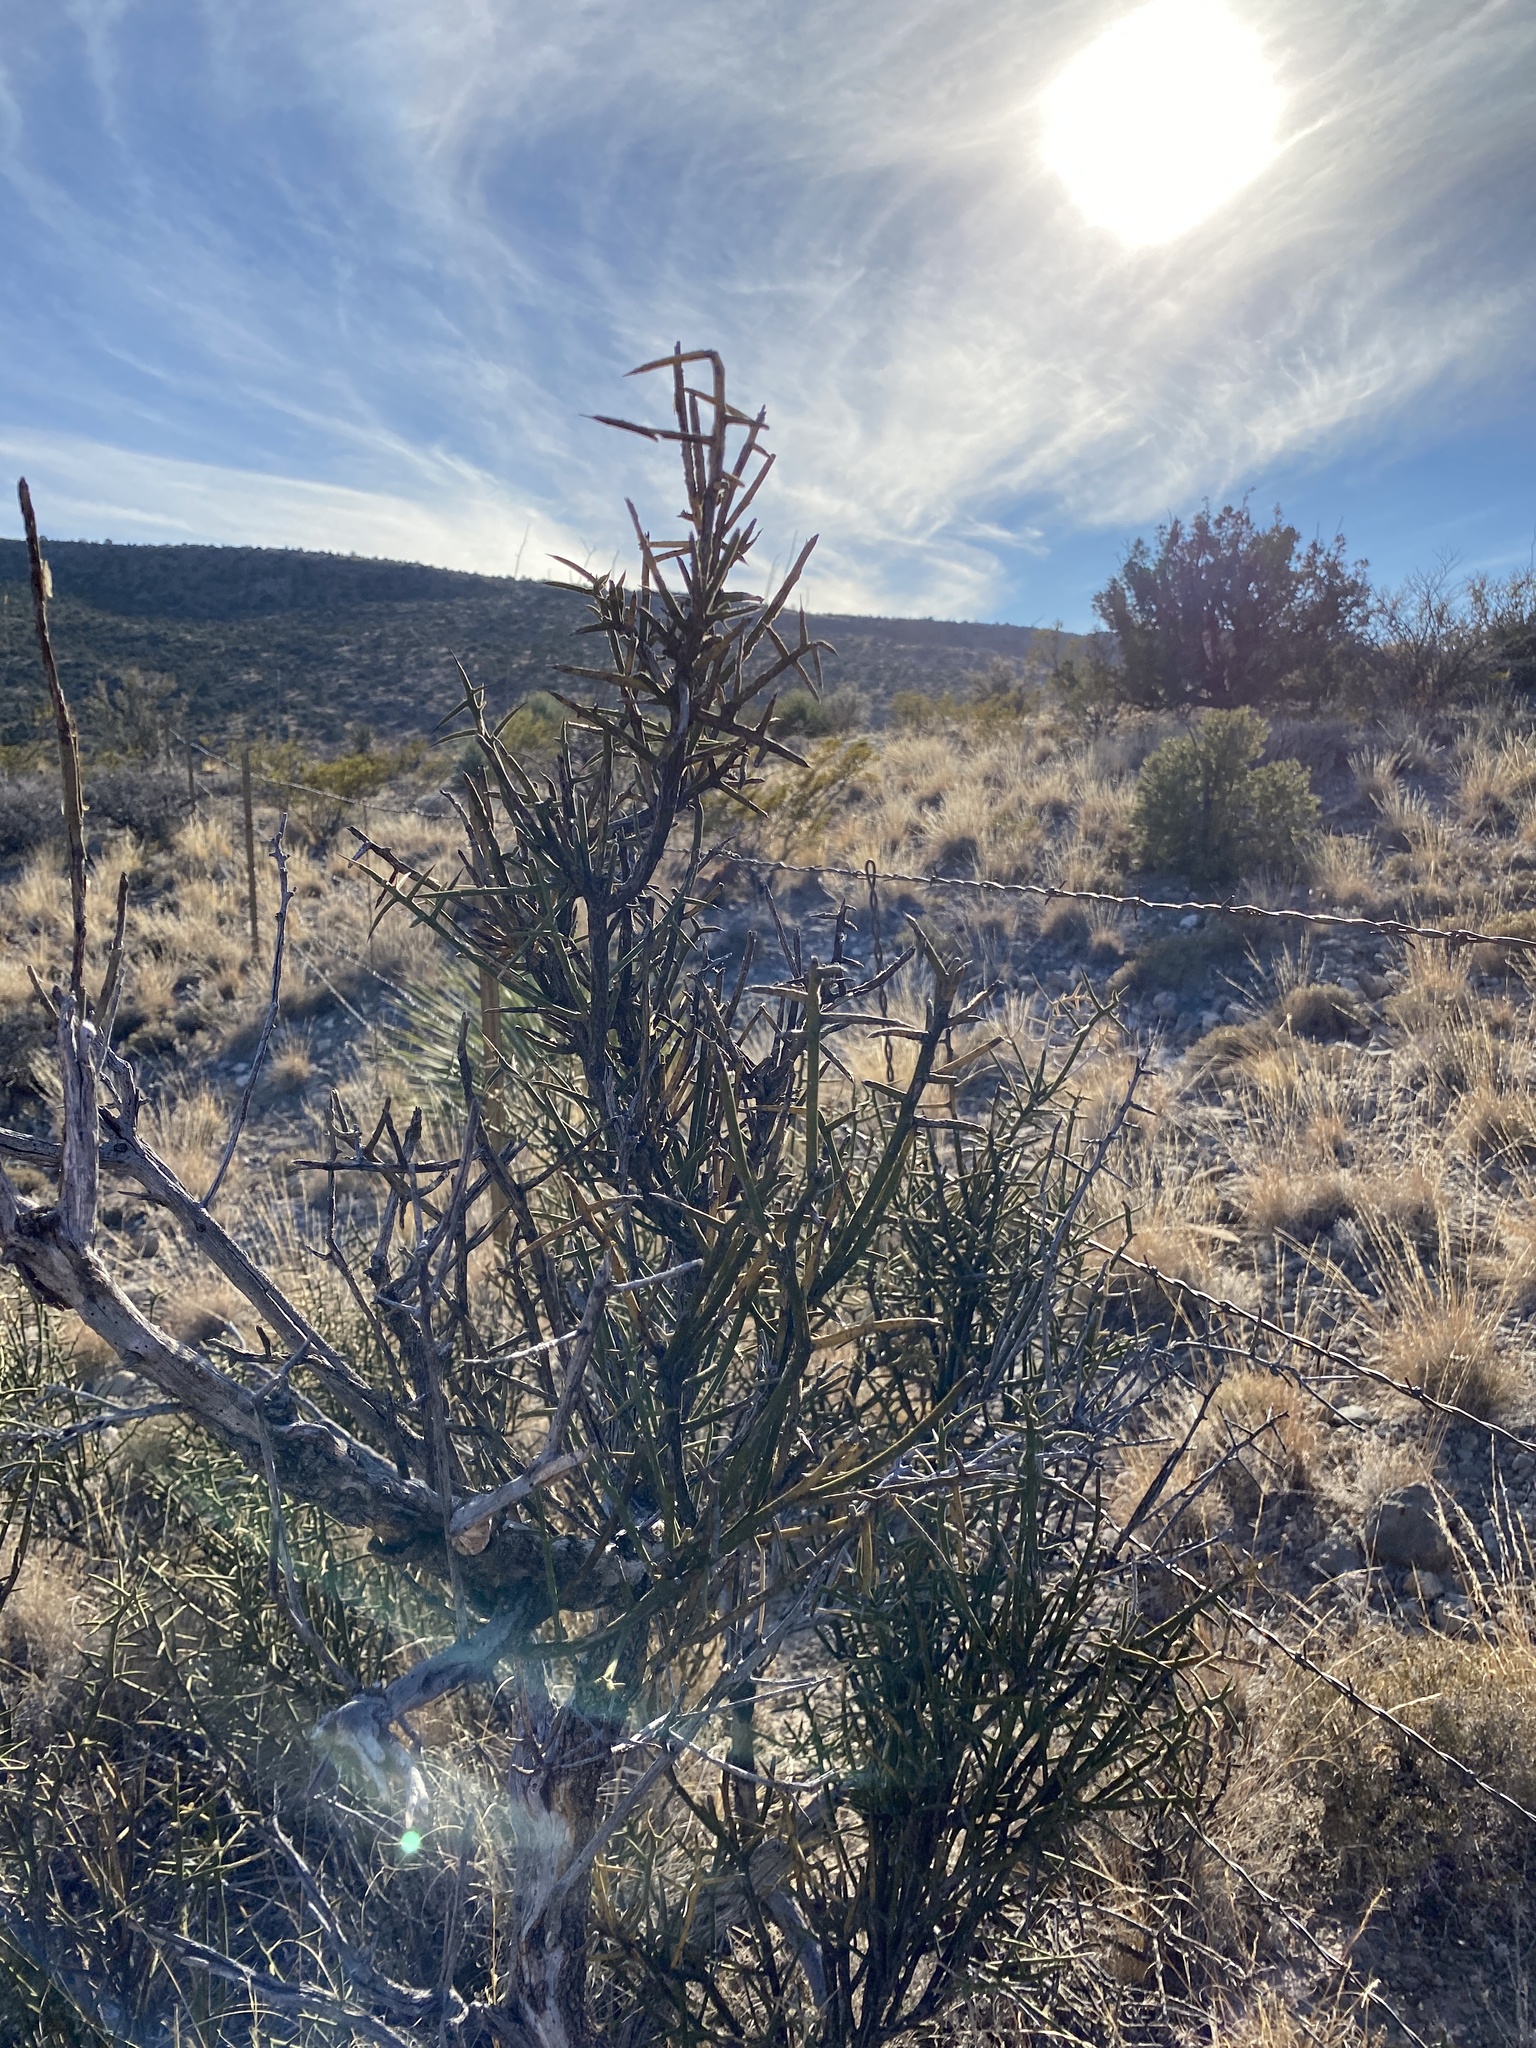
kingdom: Plantae
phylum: Tracheophyta
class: Magnoliopsida
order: Brassicales
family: Koeberliniaceae
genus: Koeberlinia
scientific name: Koeberlinia spinosa
